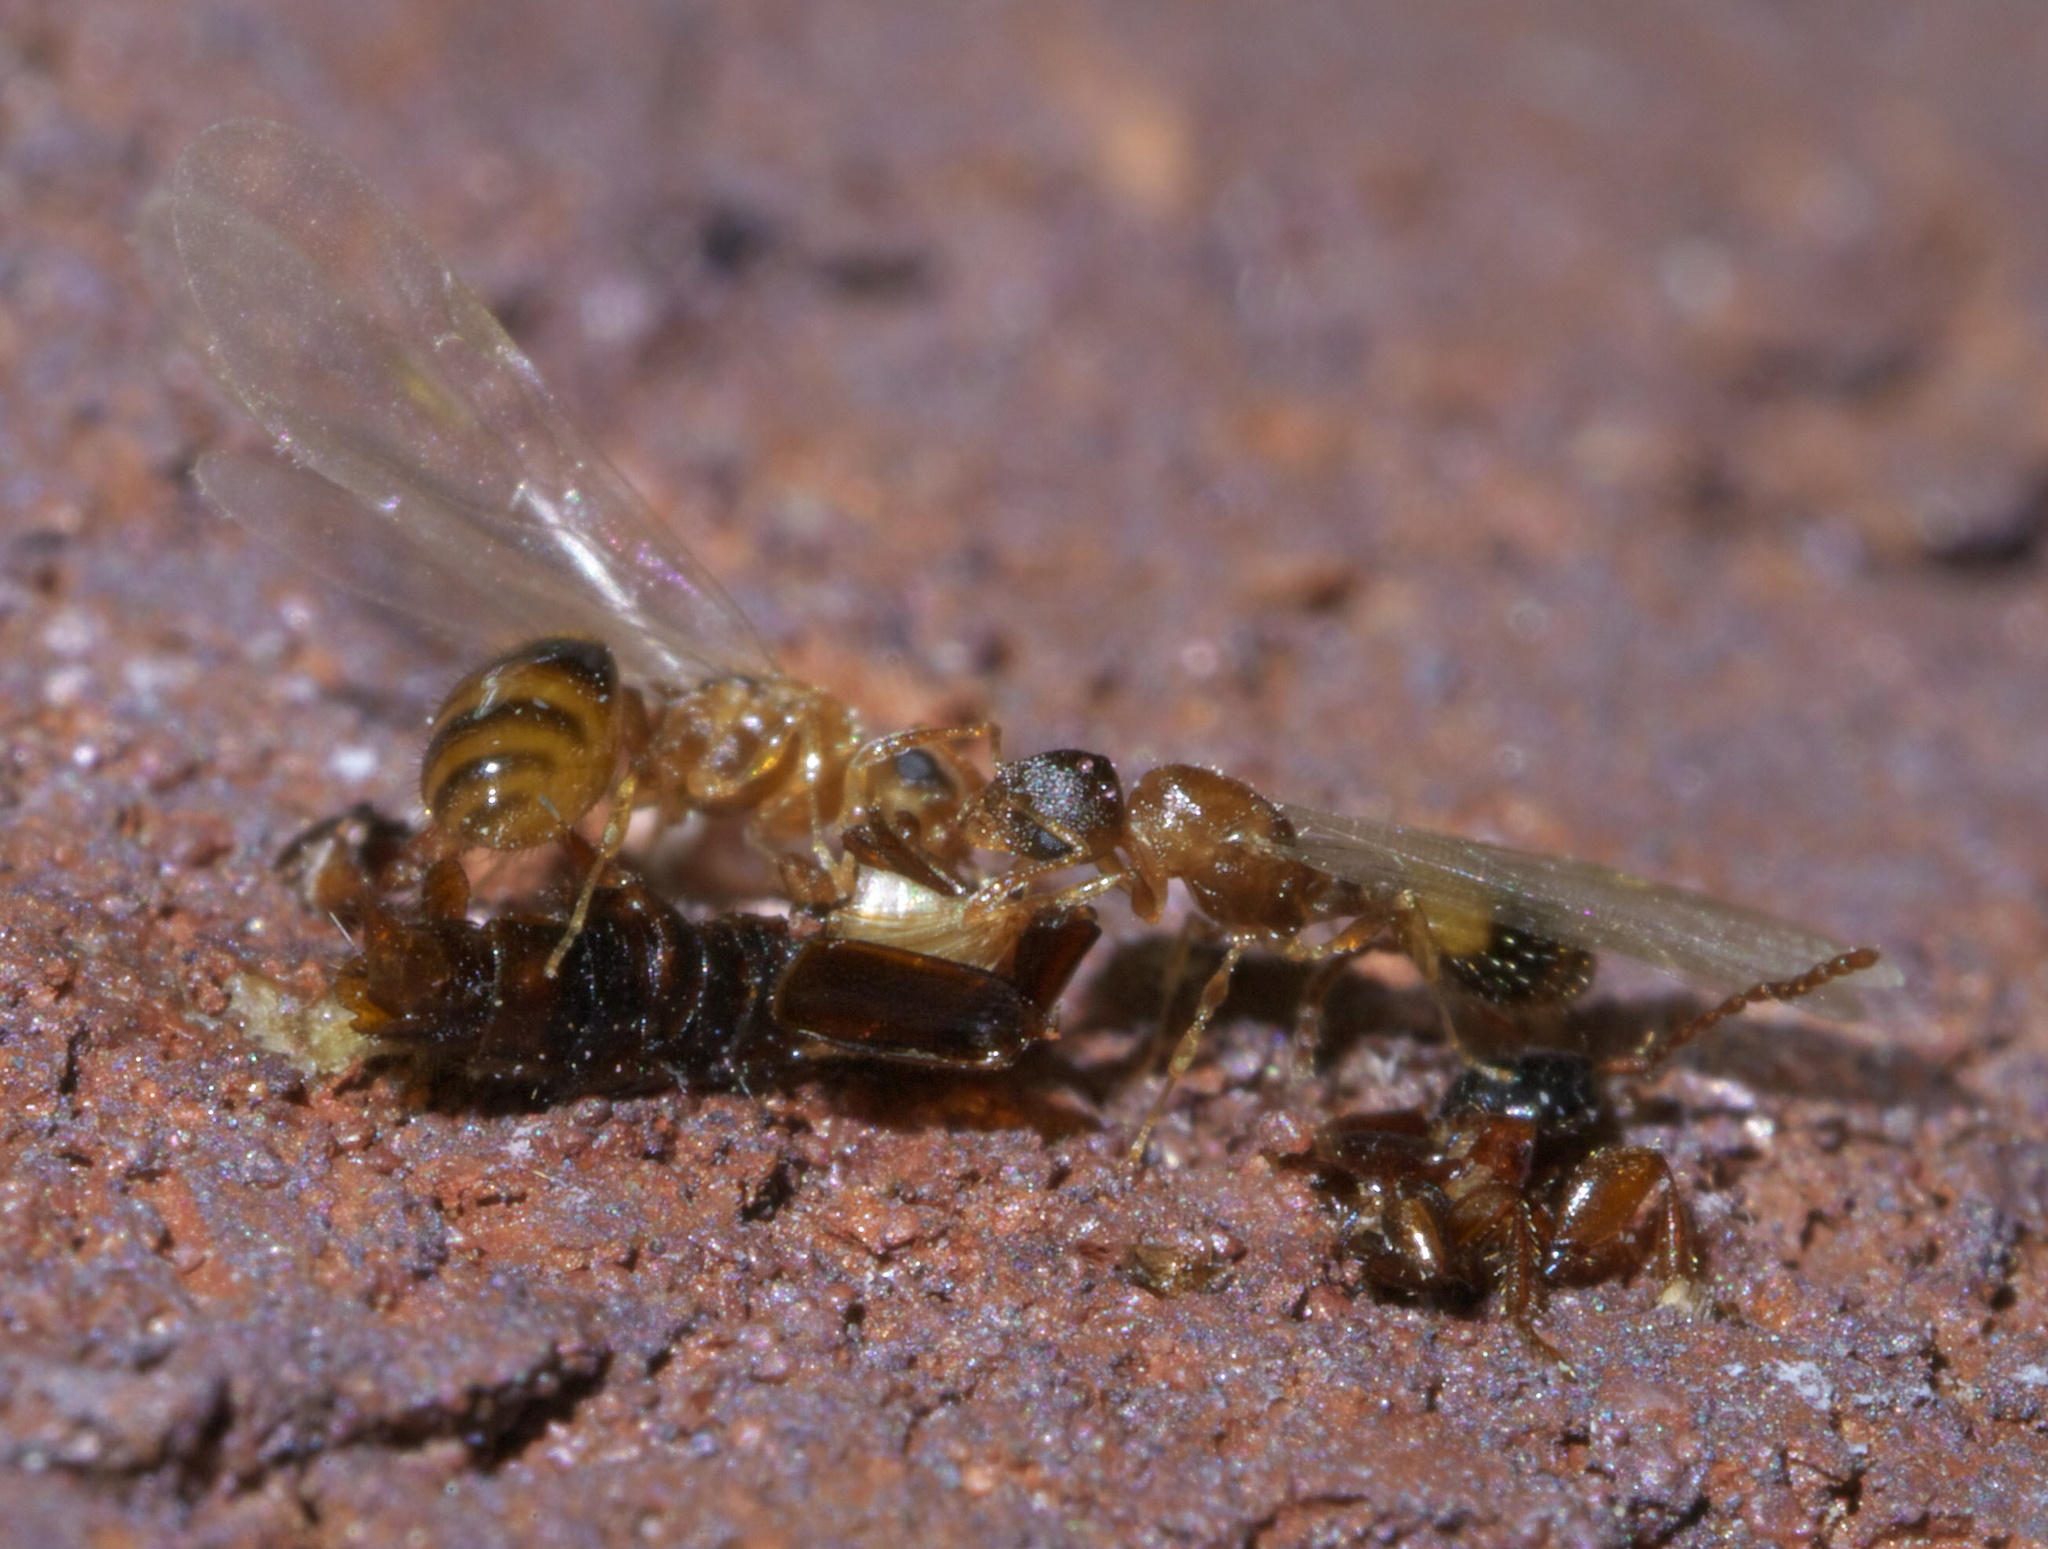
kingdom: Animalia
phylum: Arthropoda
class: Insecta
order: Hymenoptera
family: Formicidae
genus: Temnothorax
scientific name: Temnothorax curvispinosus
